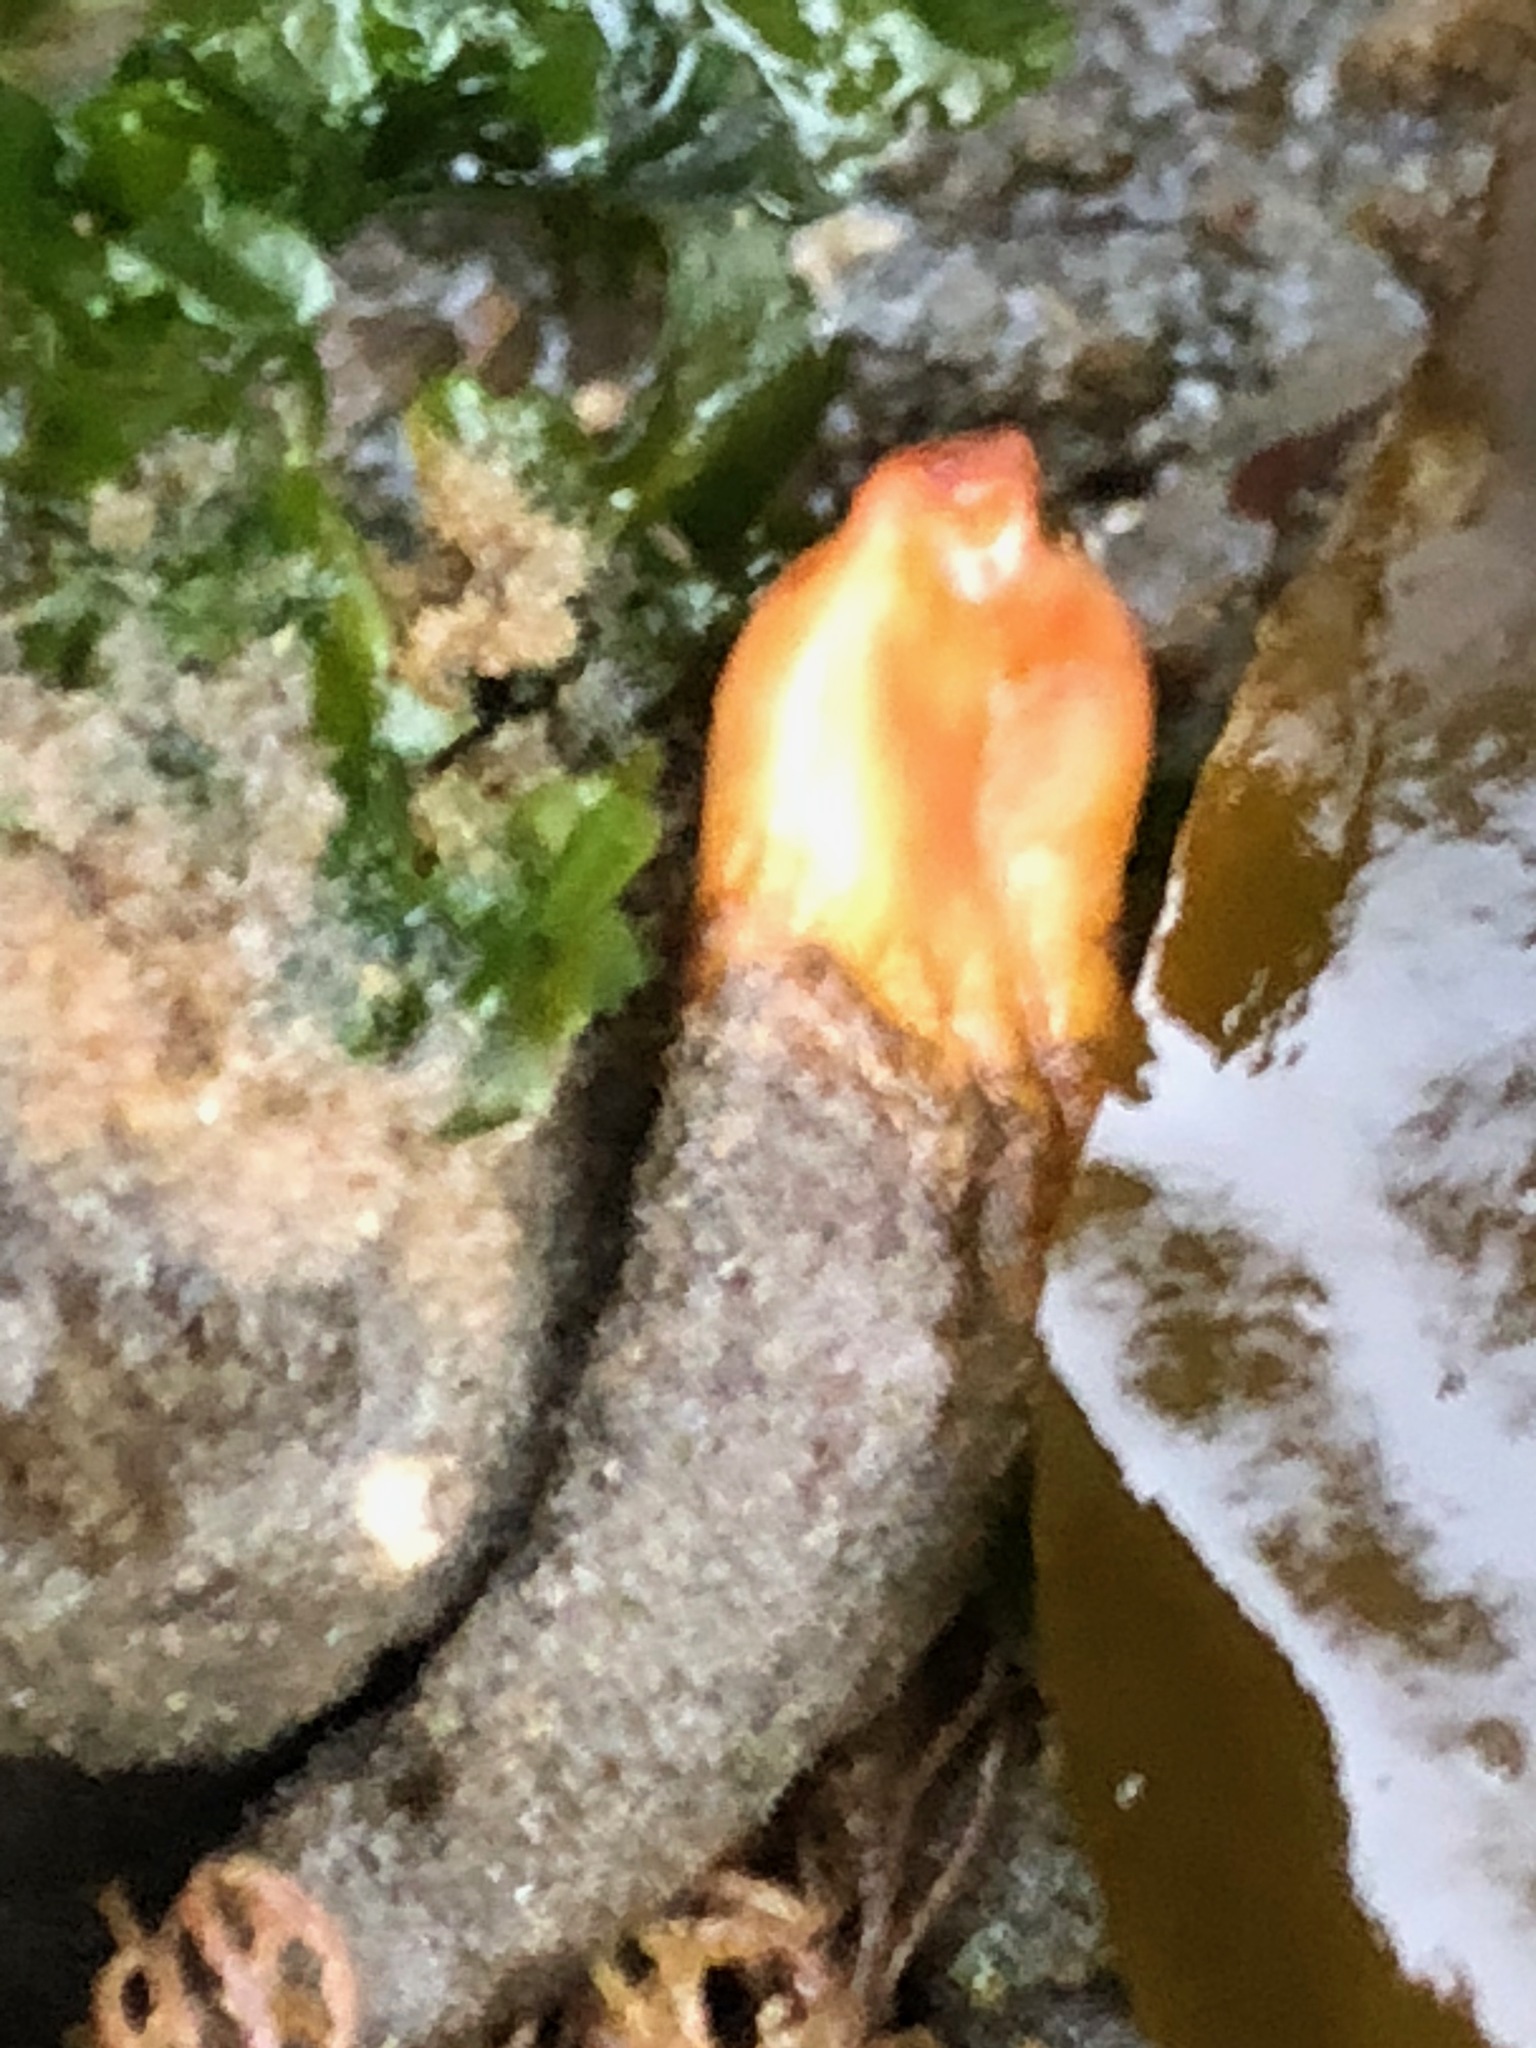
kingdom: Animalia
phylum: Chordata
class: Ascidiacea
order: Stolidobranchia
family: Styelidae
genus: Styela
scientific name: Styela montereyensis
